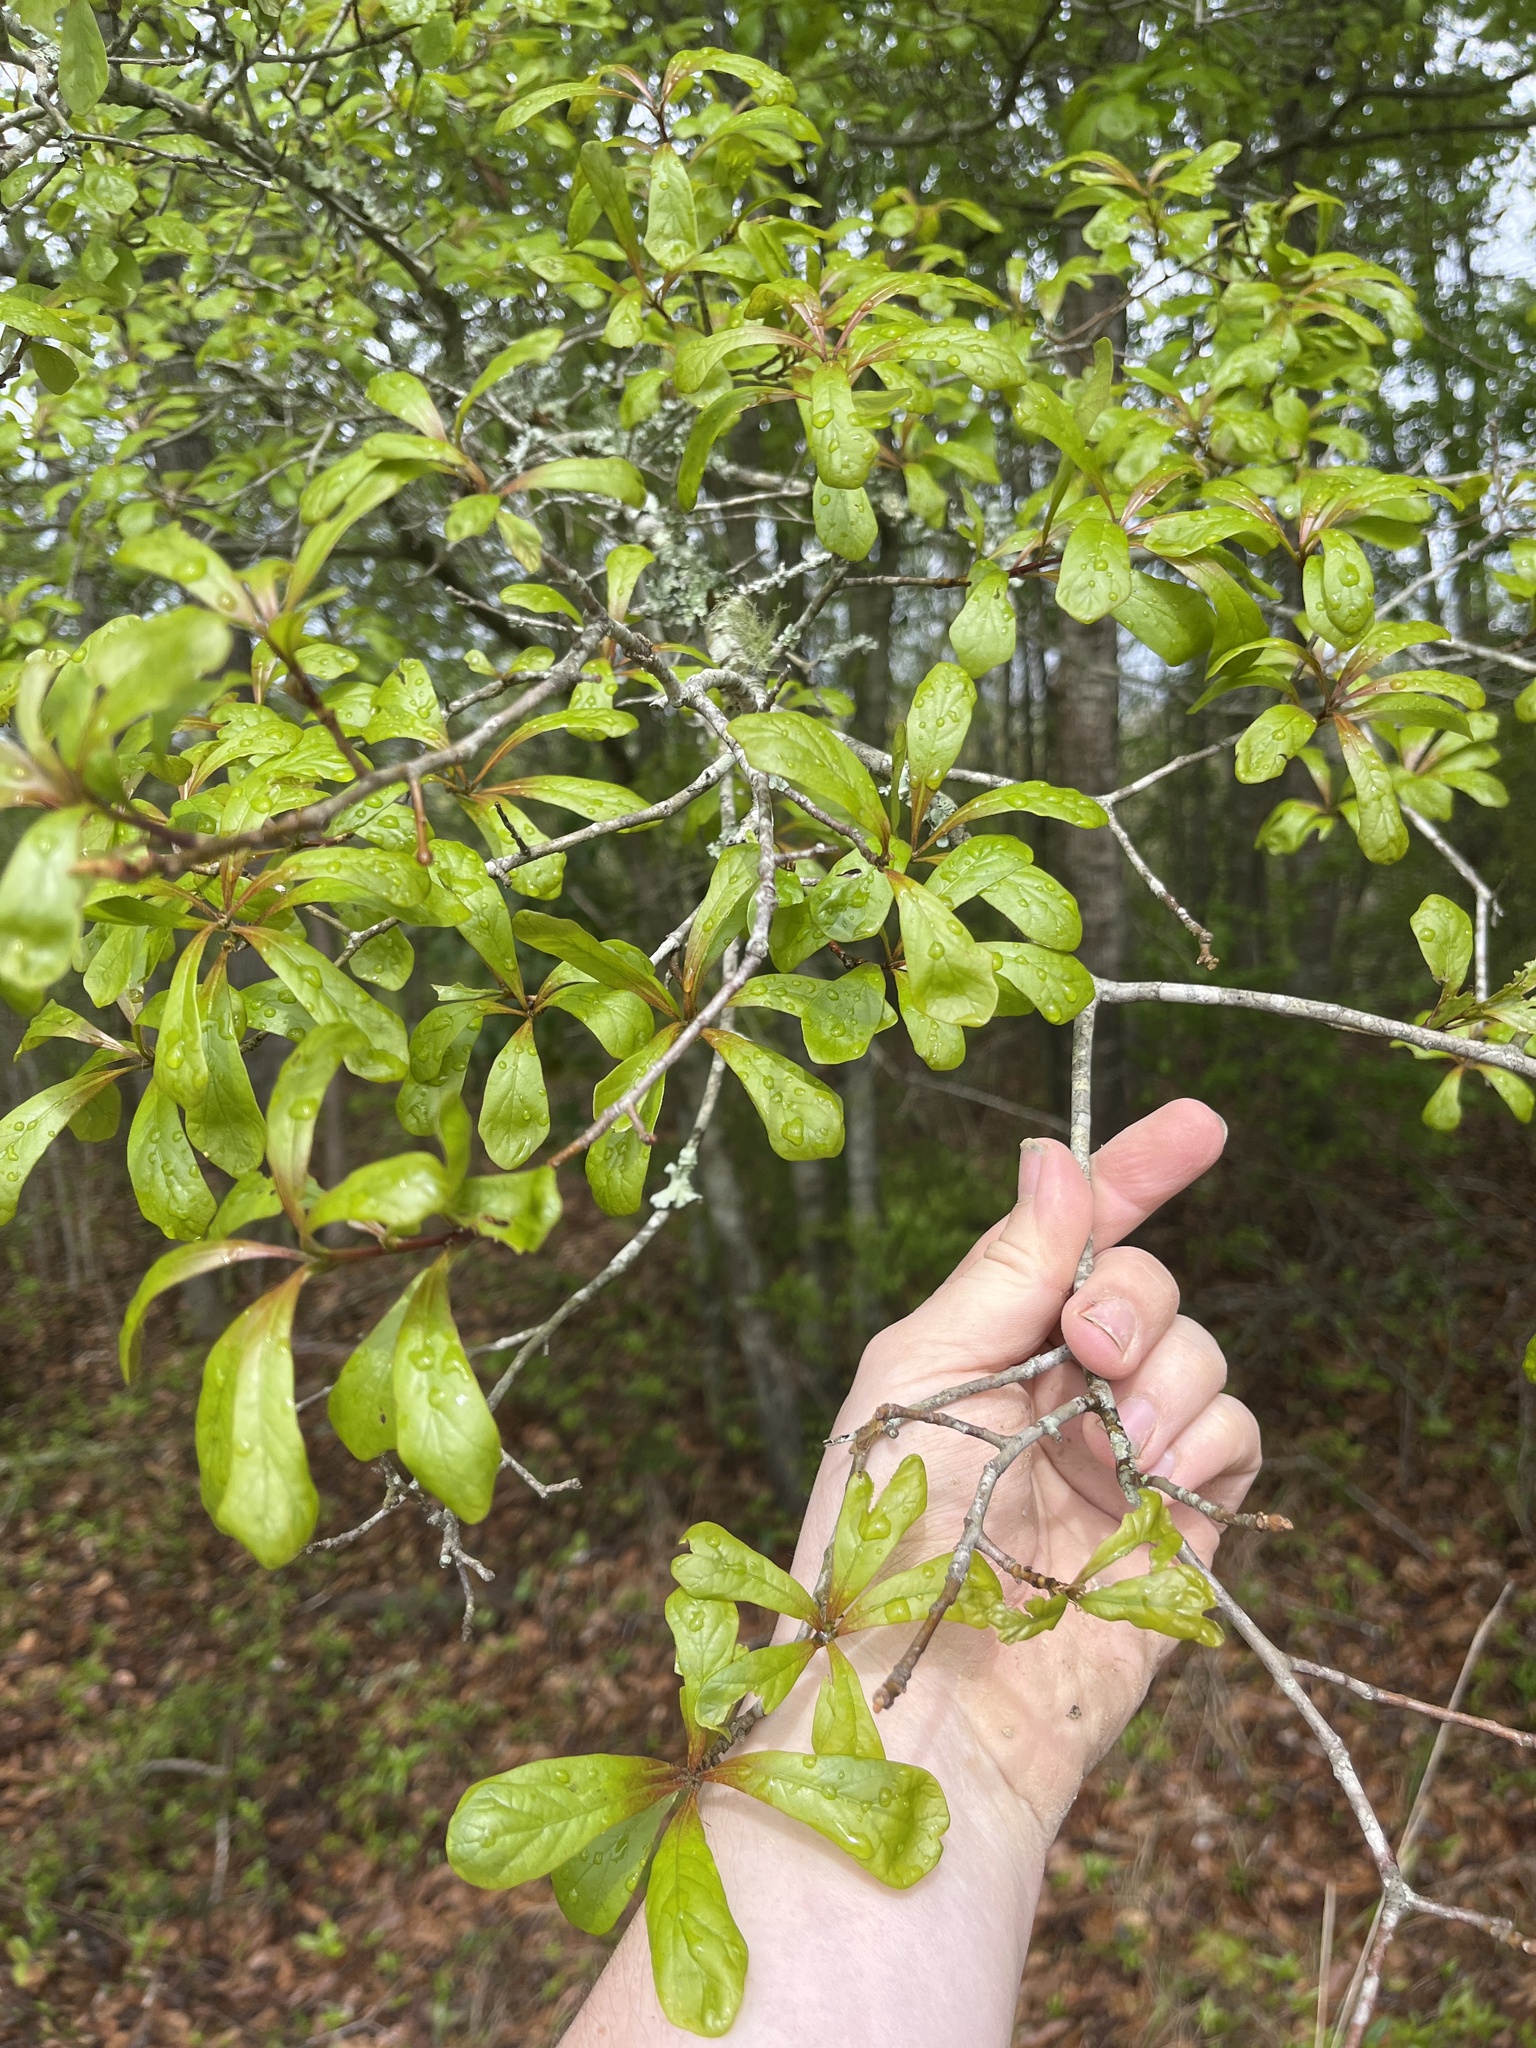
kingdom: Plantae
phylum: Tracheophyta
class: Magnoliopsida
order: Fagales
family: Fagaceae
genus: Quercus
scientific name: Quercus nigra
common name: Water oak
